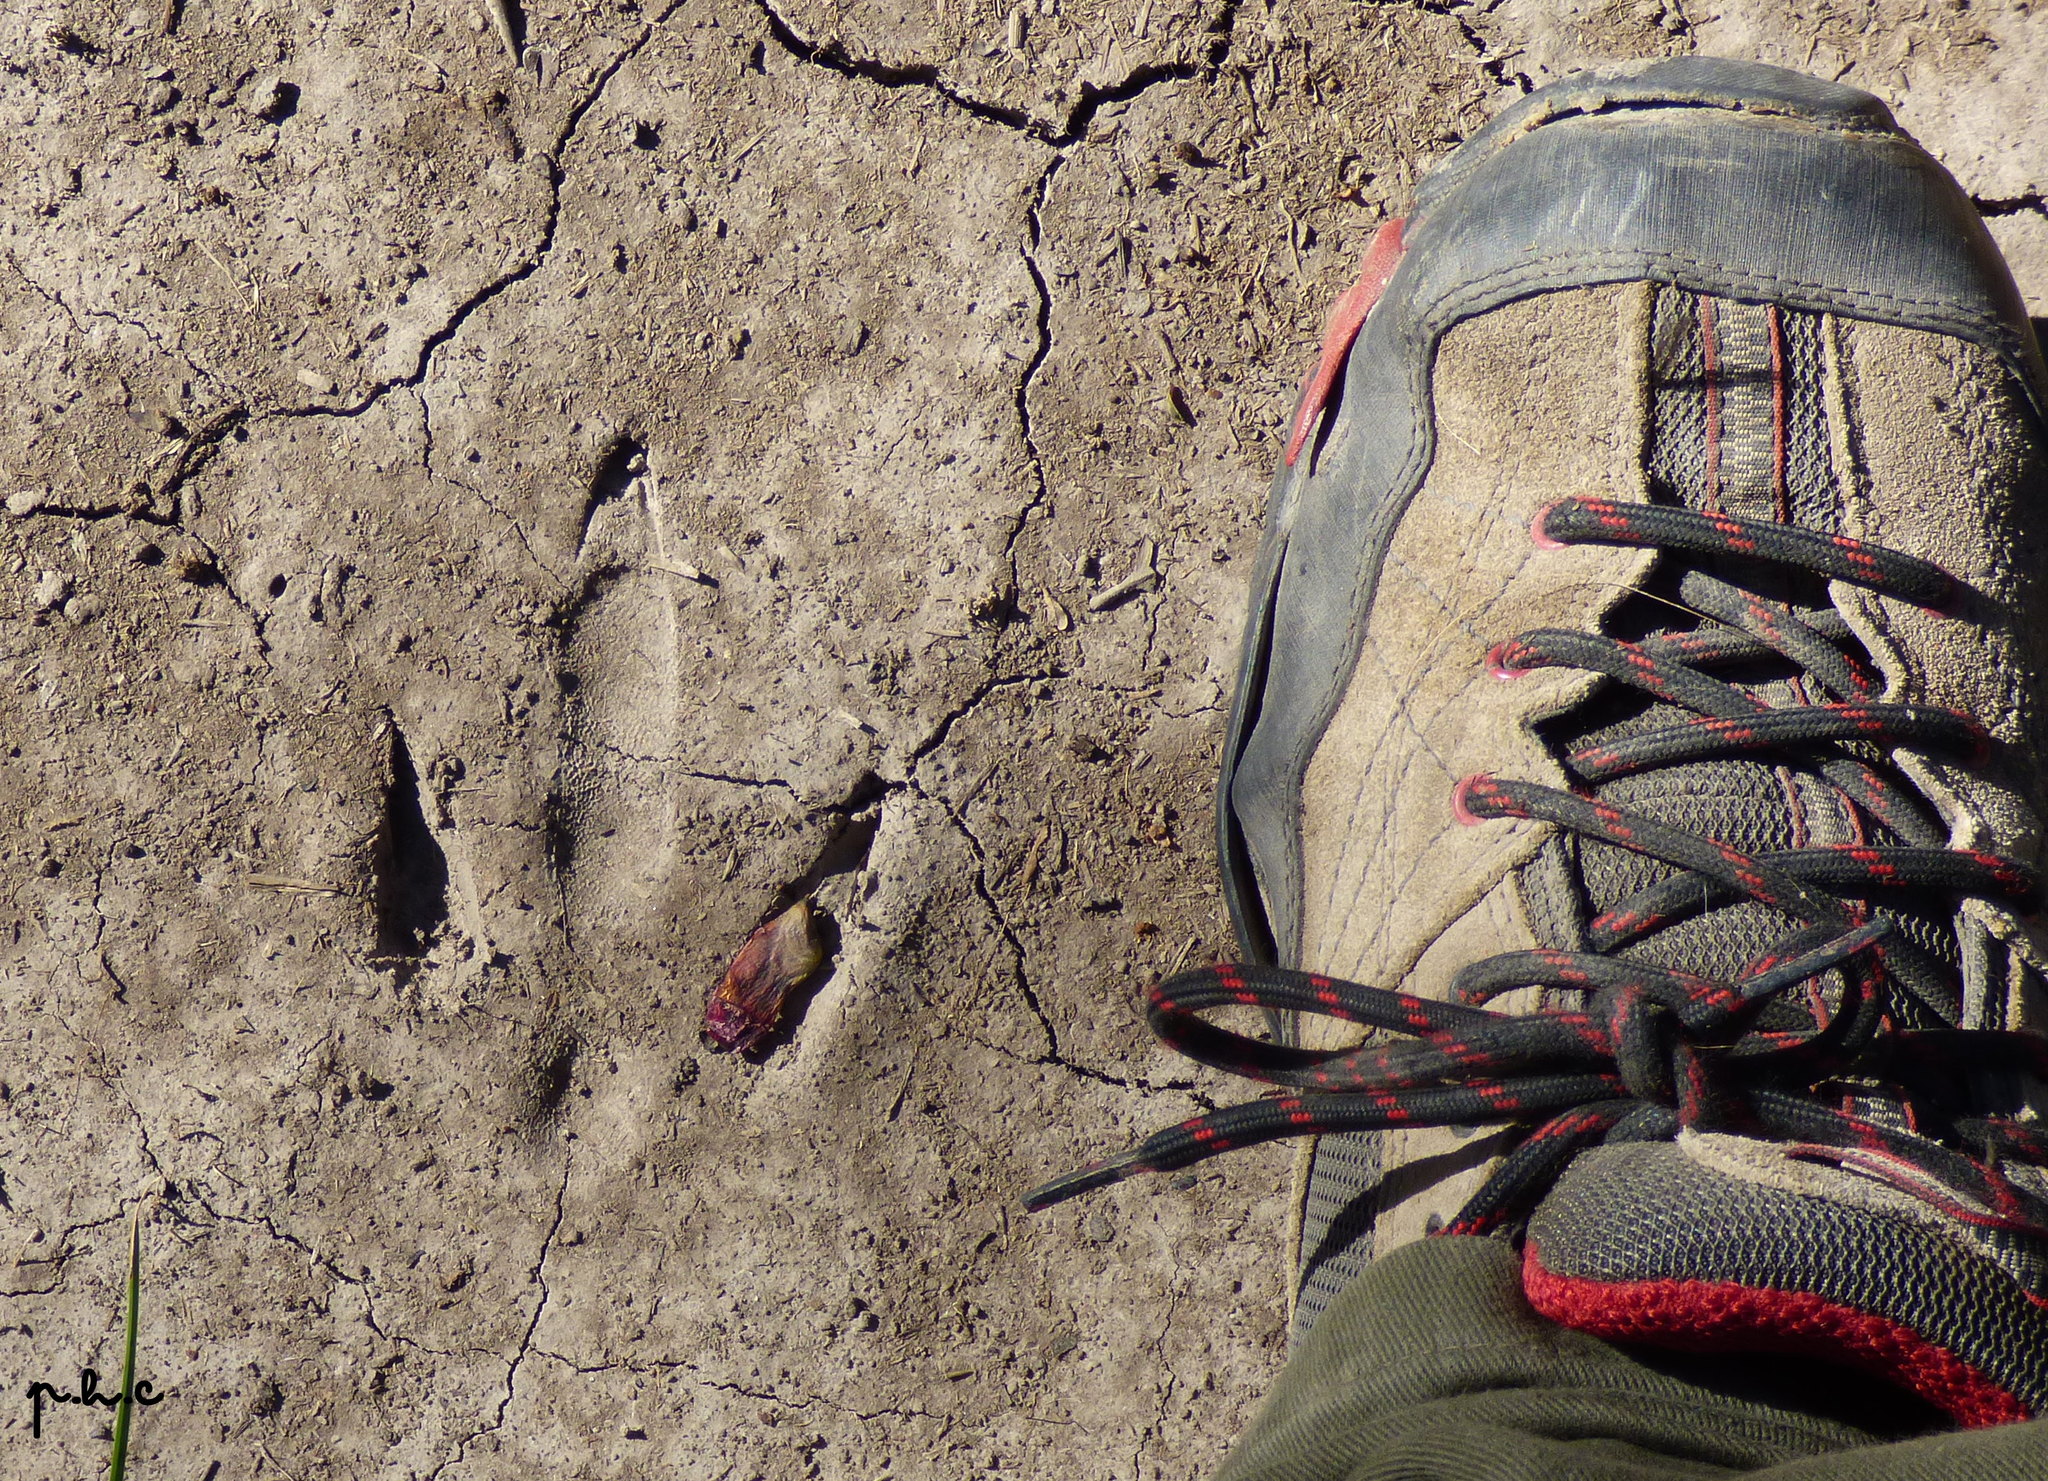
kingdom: Animalia
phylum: Chordata
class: Aves
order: Rheiformes
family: Rheidae
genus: Rhea
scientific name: Rhea americana
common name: Greater rhea
